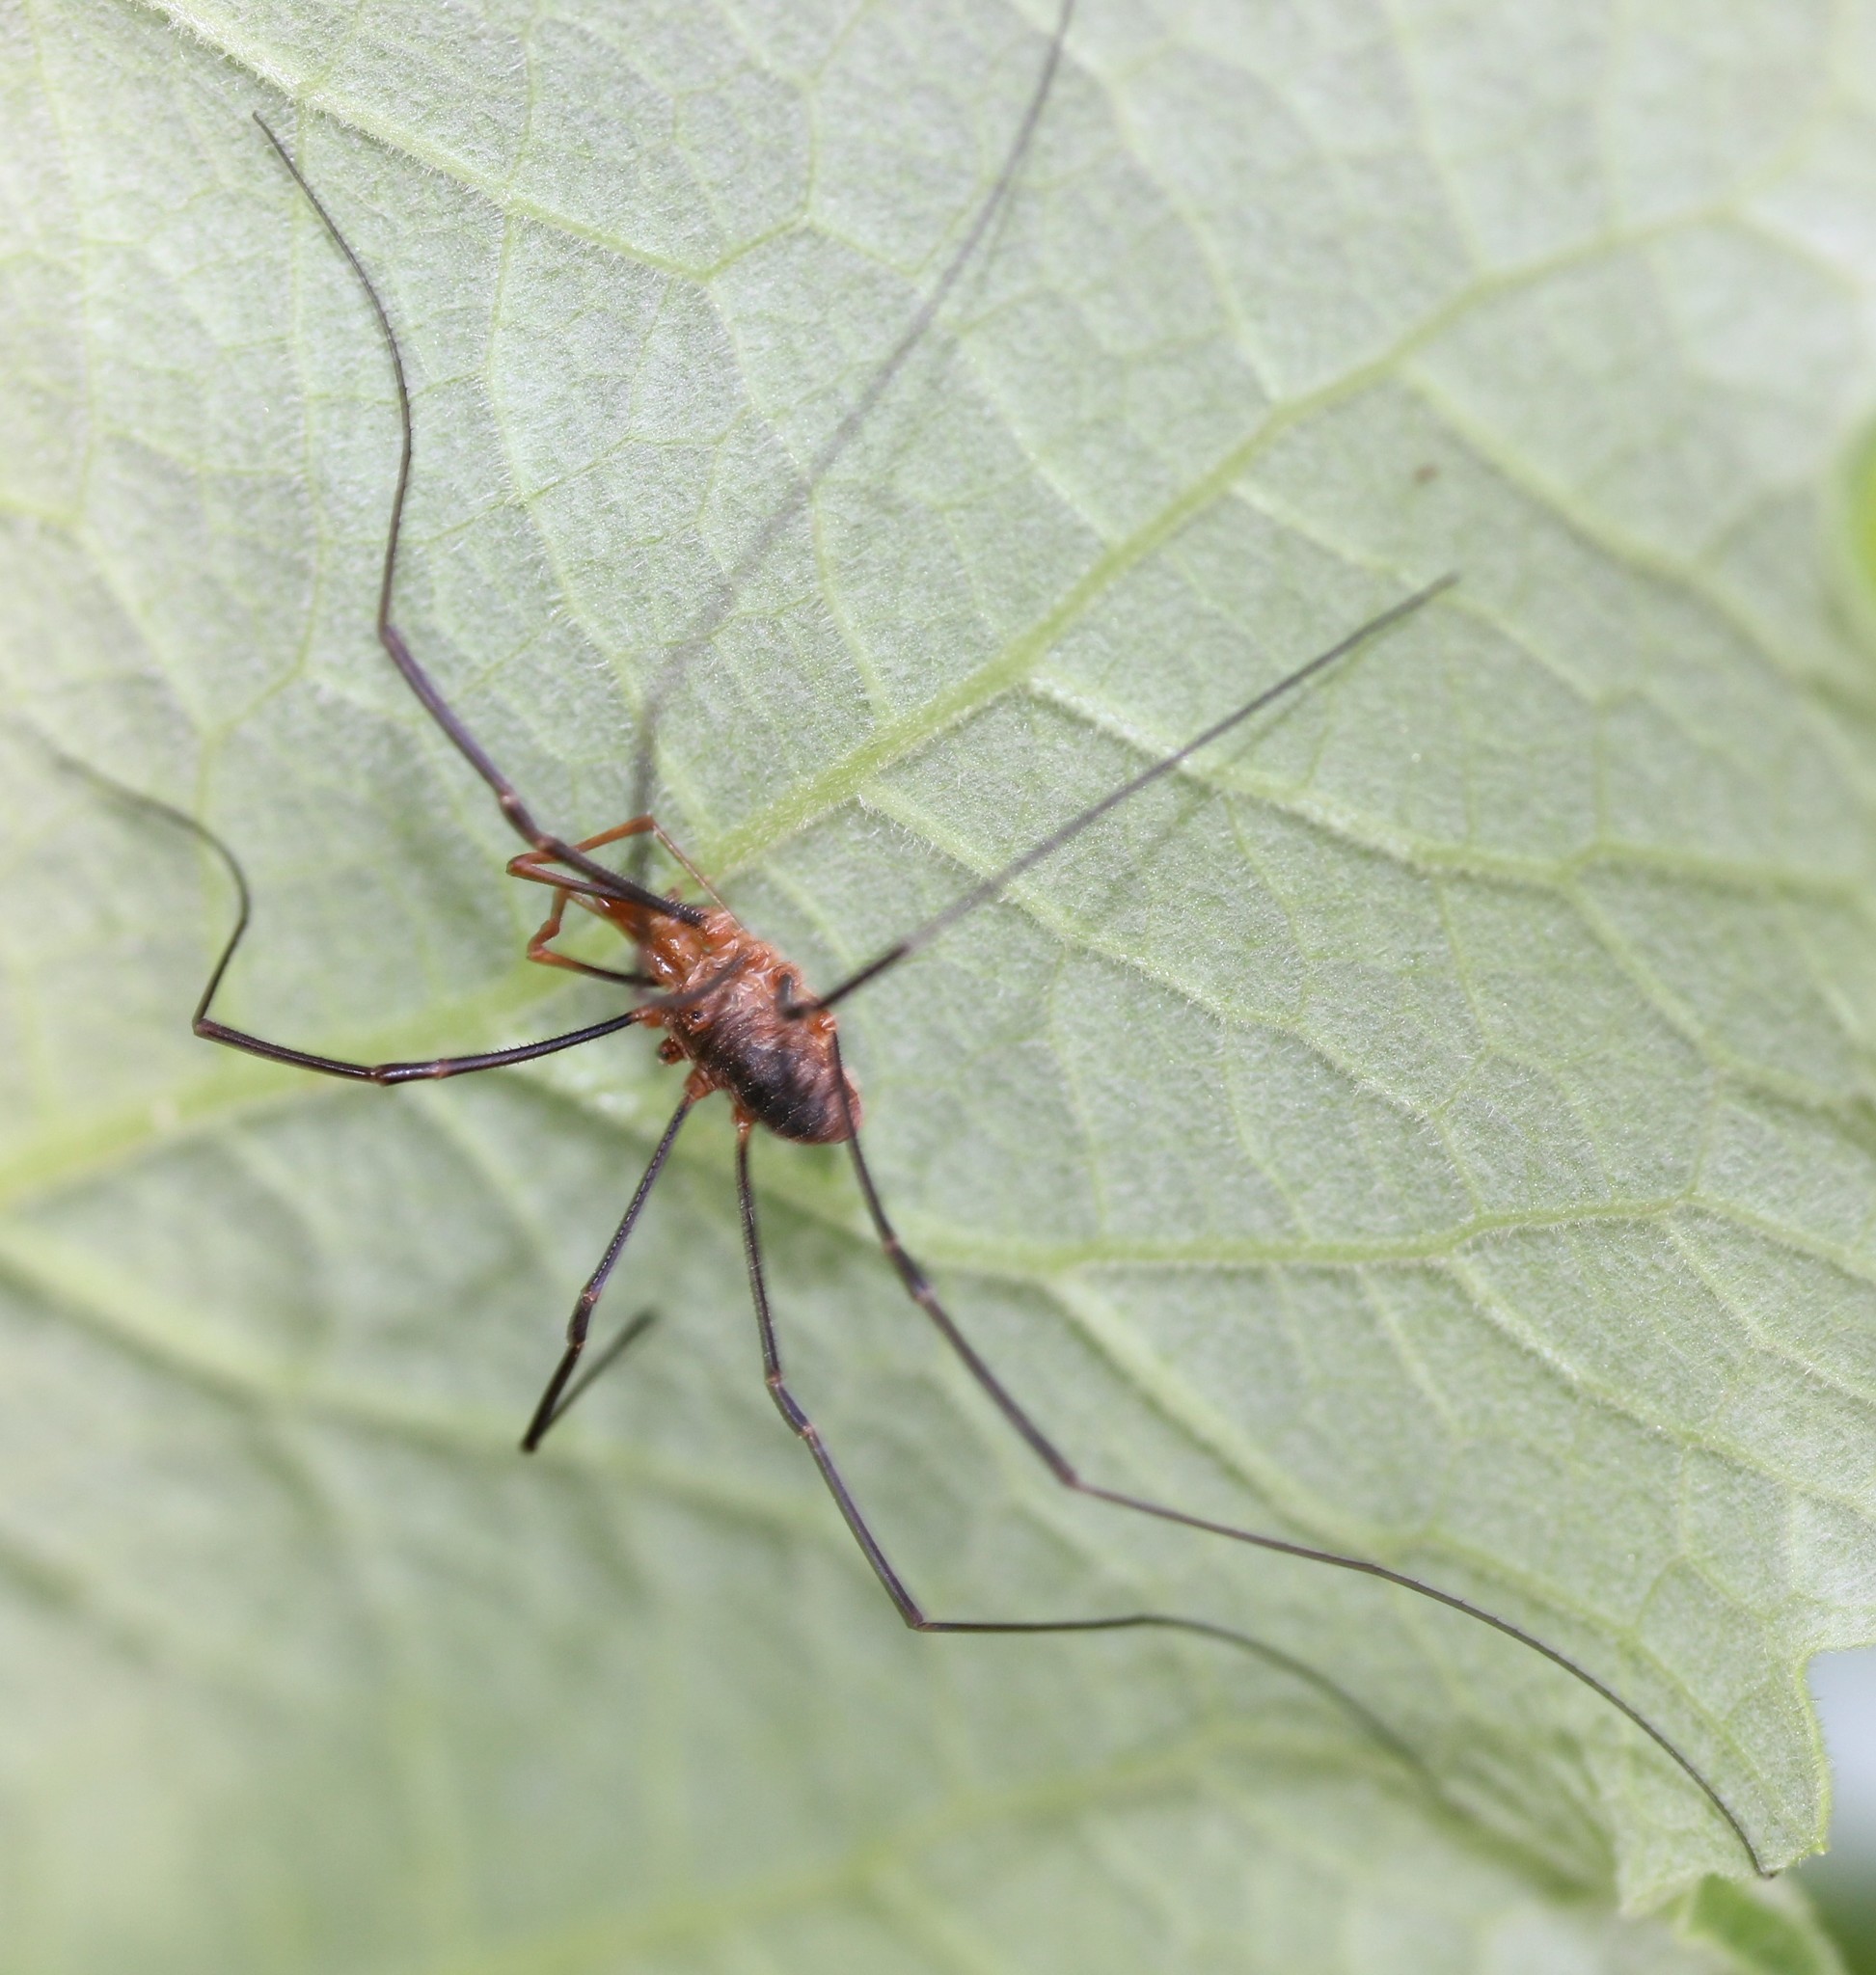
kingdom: Animalia
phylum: Arthropoda
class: Arachnida
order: Opiliones
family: Phalangiidae
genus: Phalangium
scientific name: Phalangium opilio
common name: Daddy longleg
